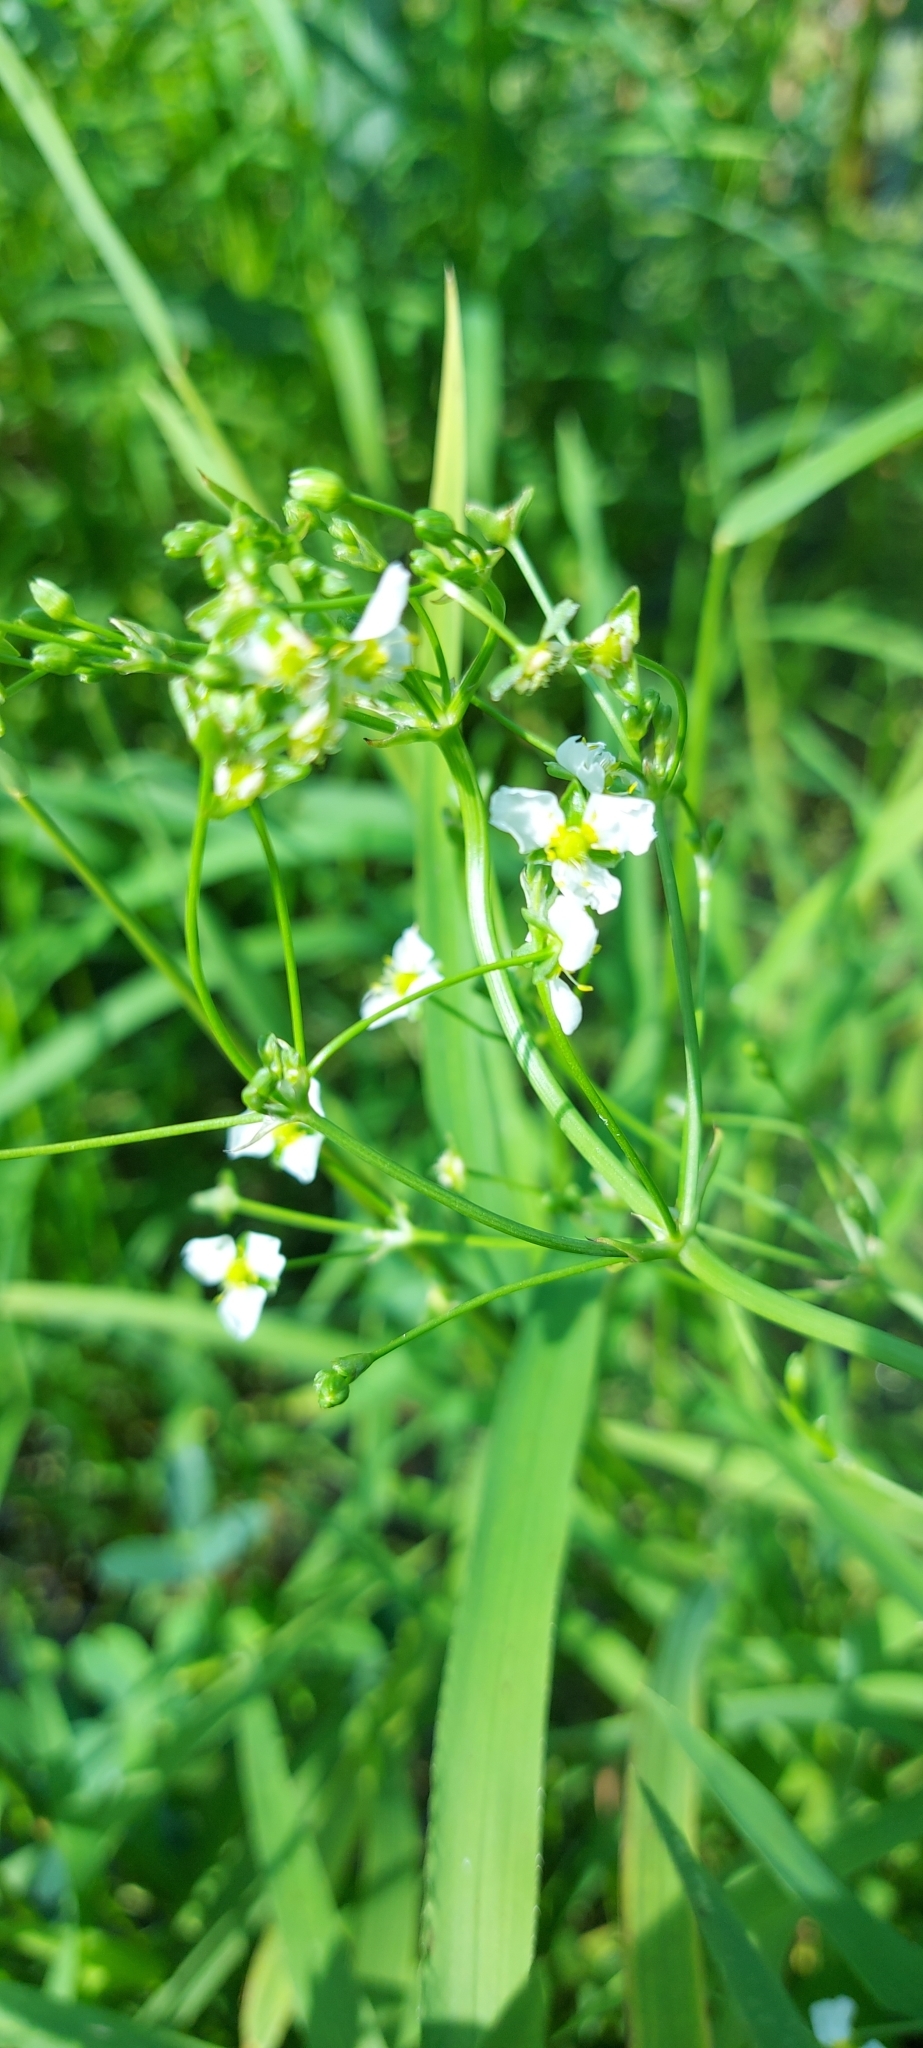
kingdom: Plantae
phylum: Tracheophyta
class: Liliopsida
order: Alismatales
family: Alismataceae
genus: Alisma
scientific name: Alisma plantago-aquatica
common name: Water-plantain
